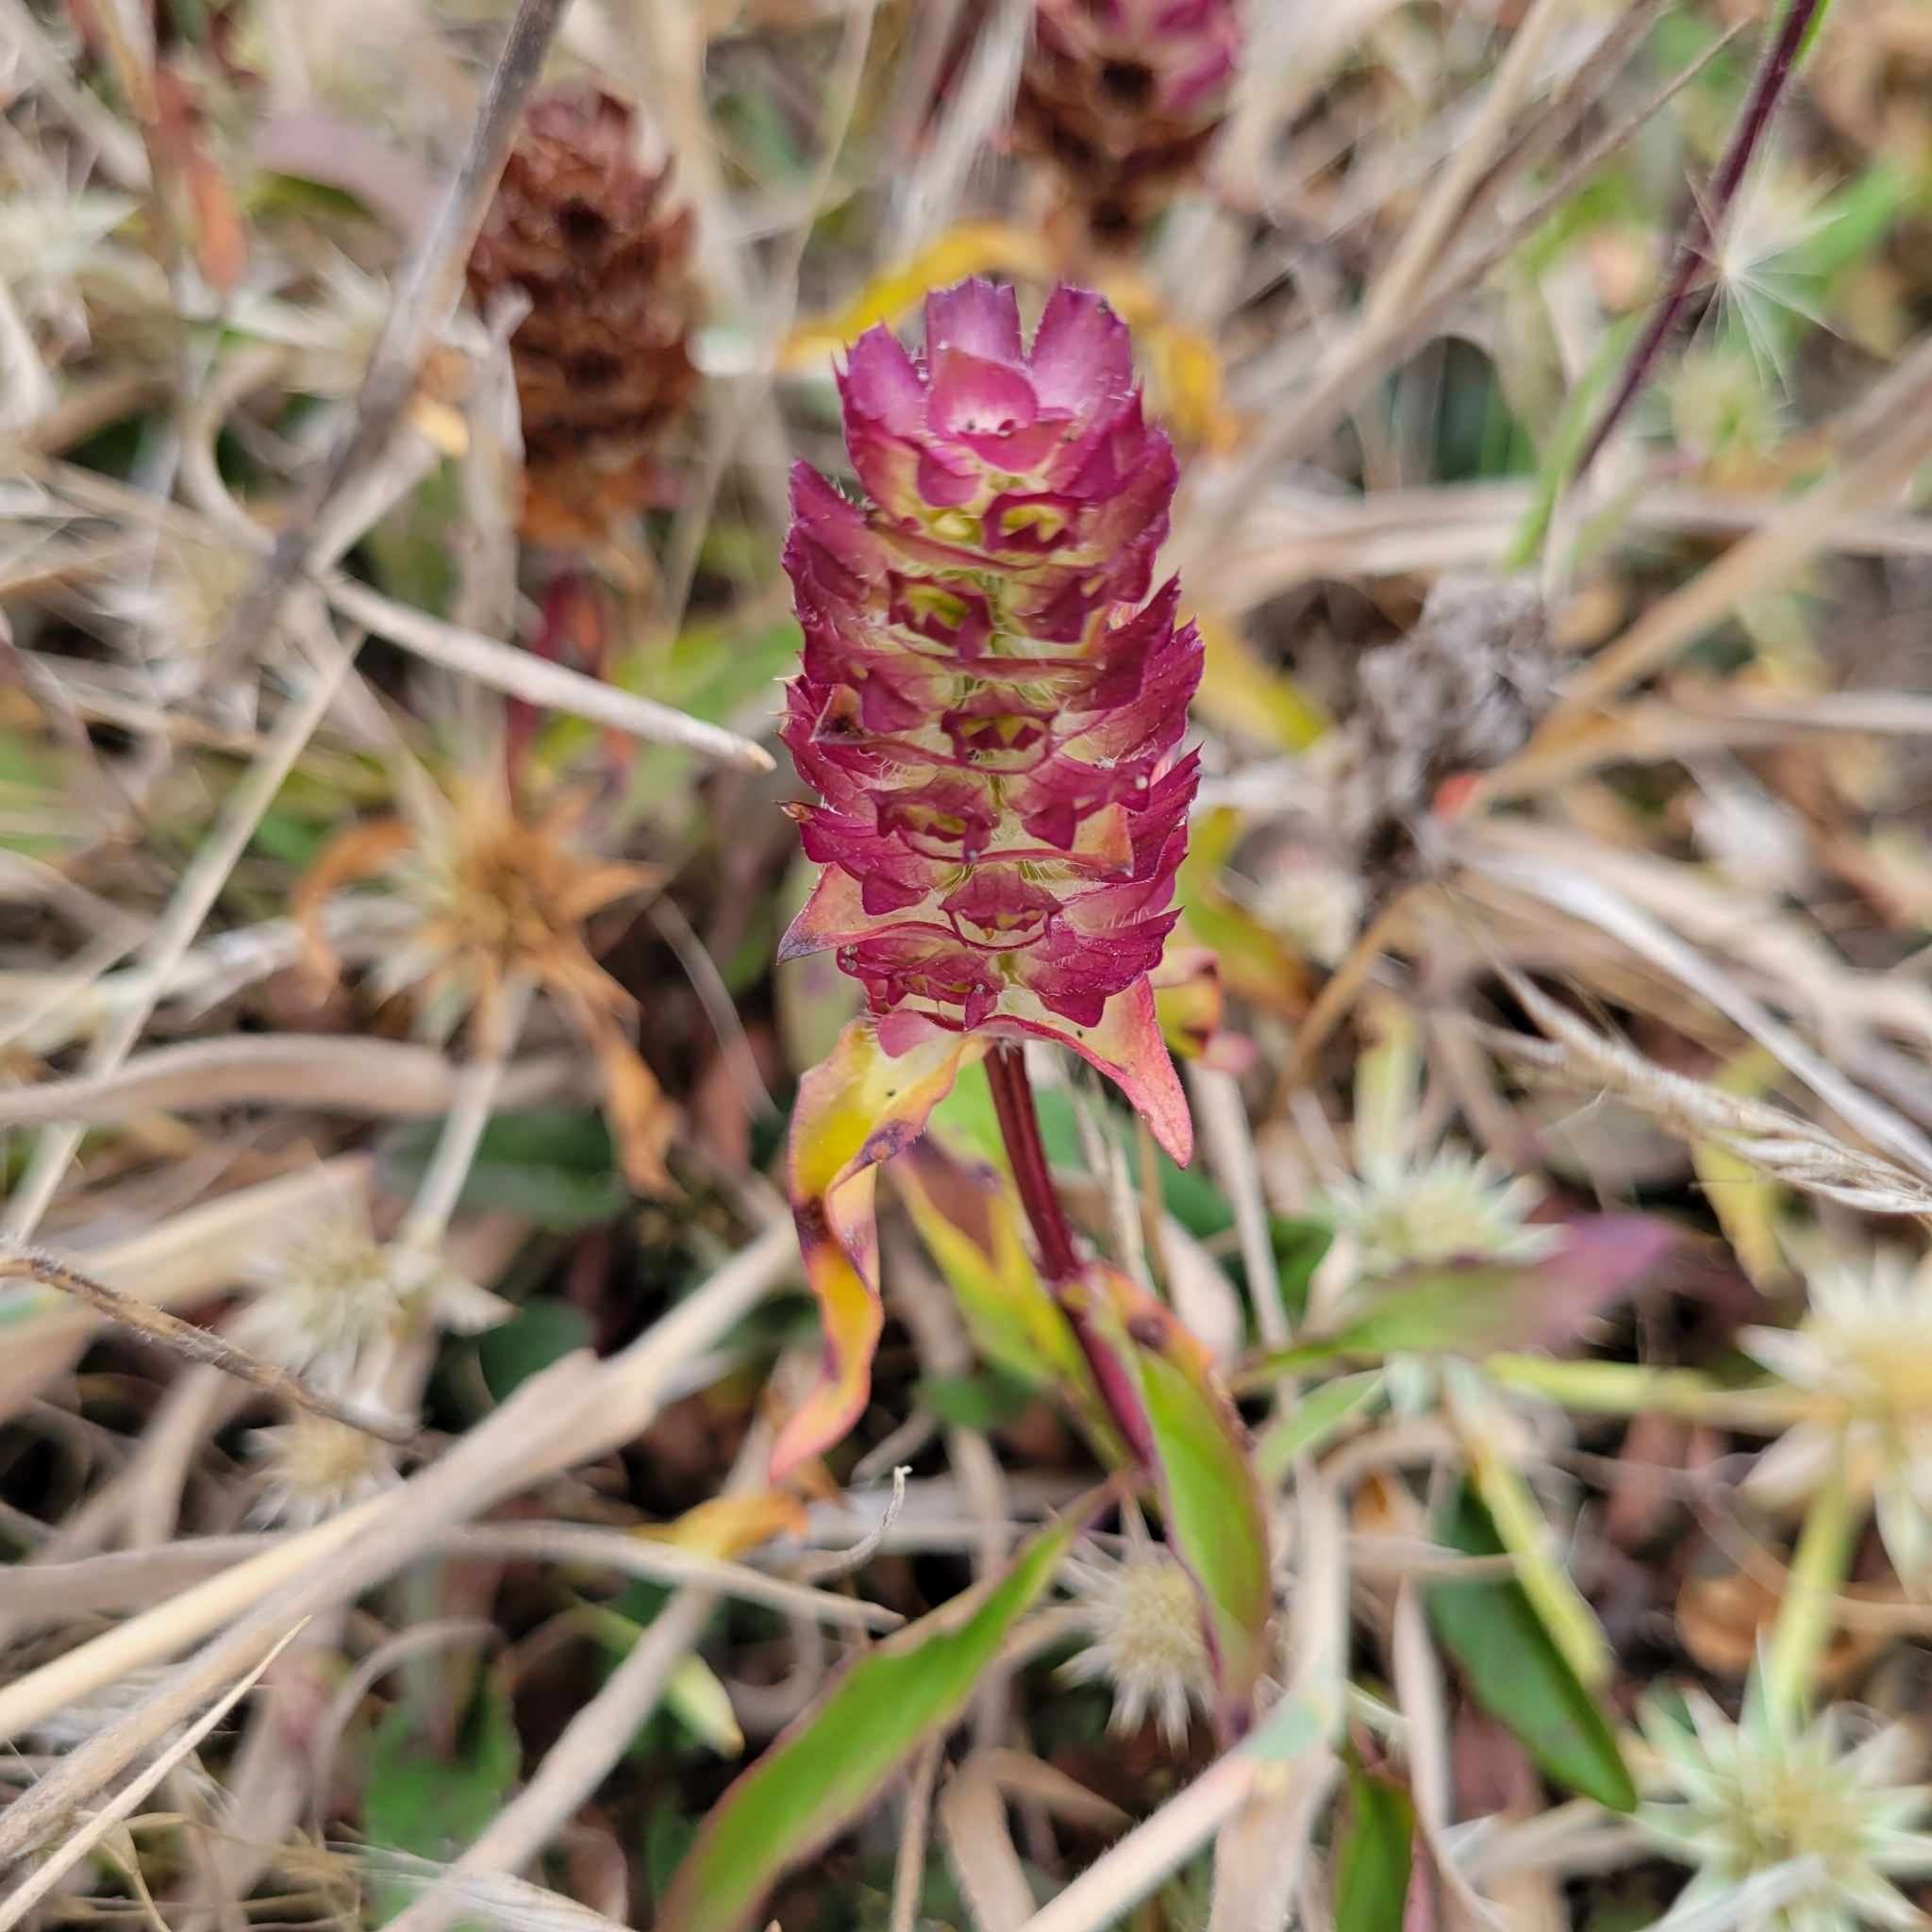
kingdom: Plantae
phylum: Tracheophyta
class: Magnoliopsida
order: Lamiales
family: Lamiaceae
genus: Prunella
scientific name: Prunella vulgaris
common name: Heal-all
